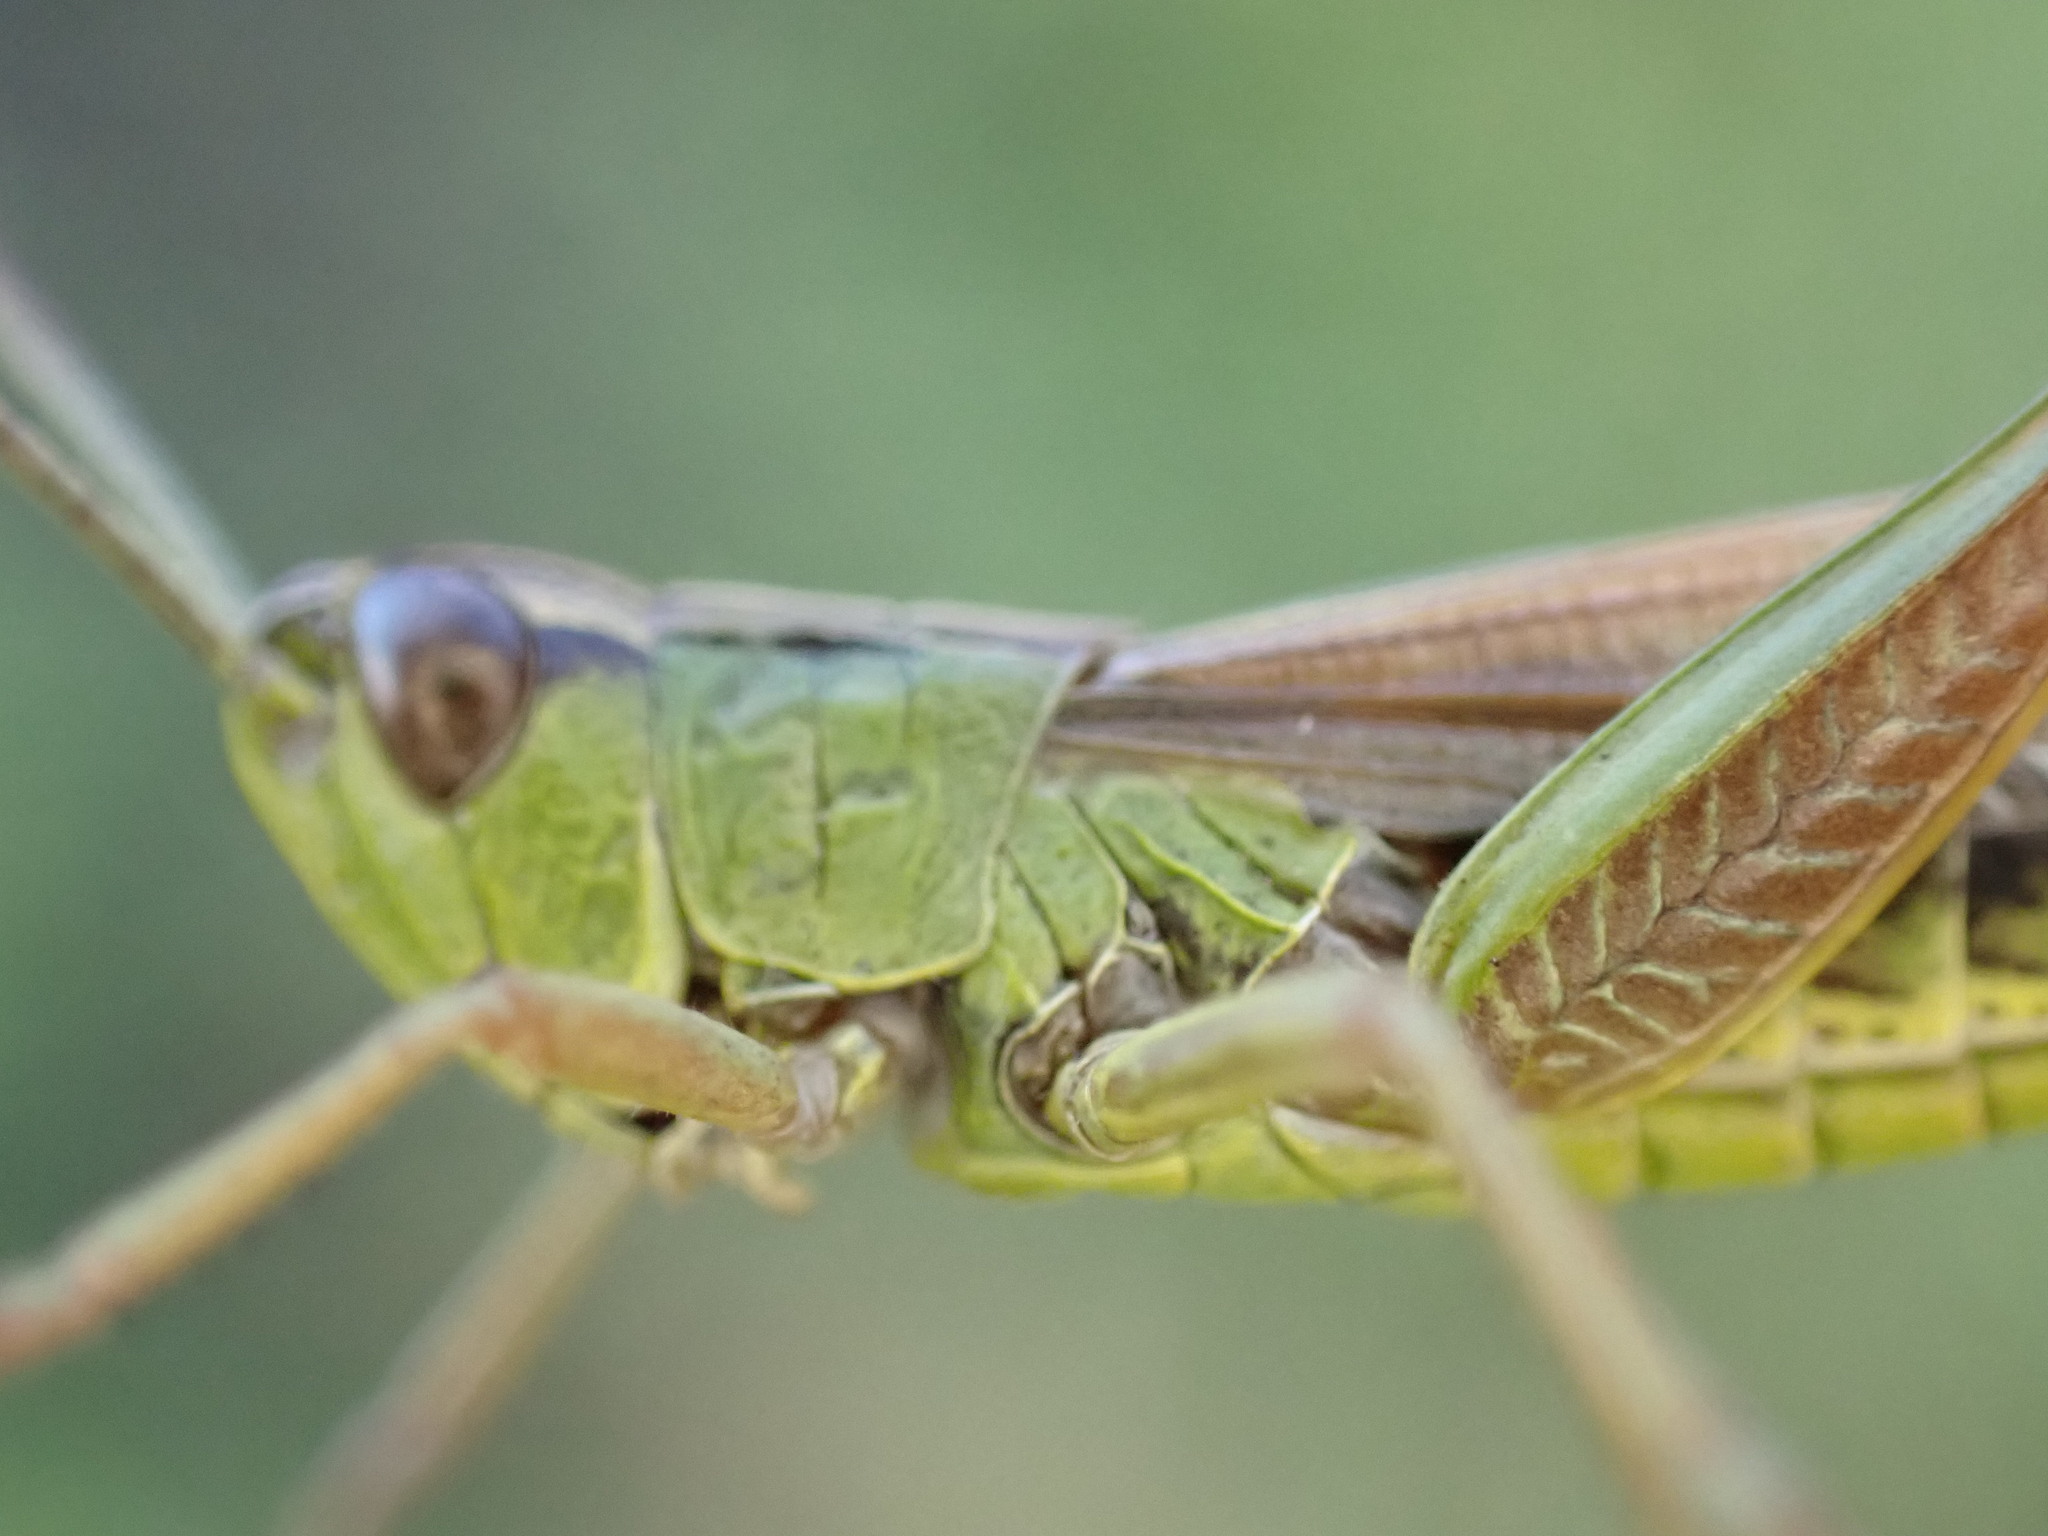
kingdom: Animalia
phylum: Arthropoda
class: Insecta
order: Orthoptera
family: Acrididae
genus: Pseudochorthippus
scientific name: Pseudochorthippus parallelus
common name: Meadow grasshopper
